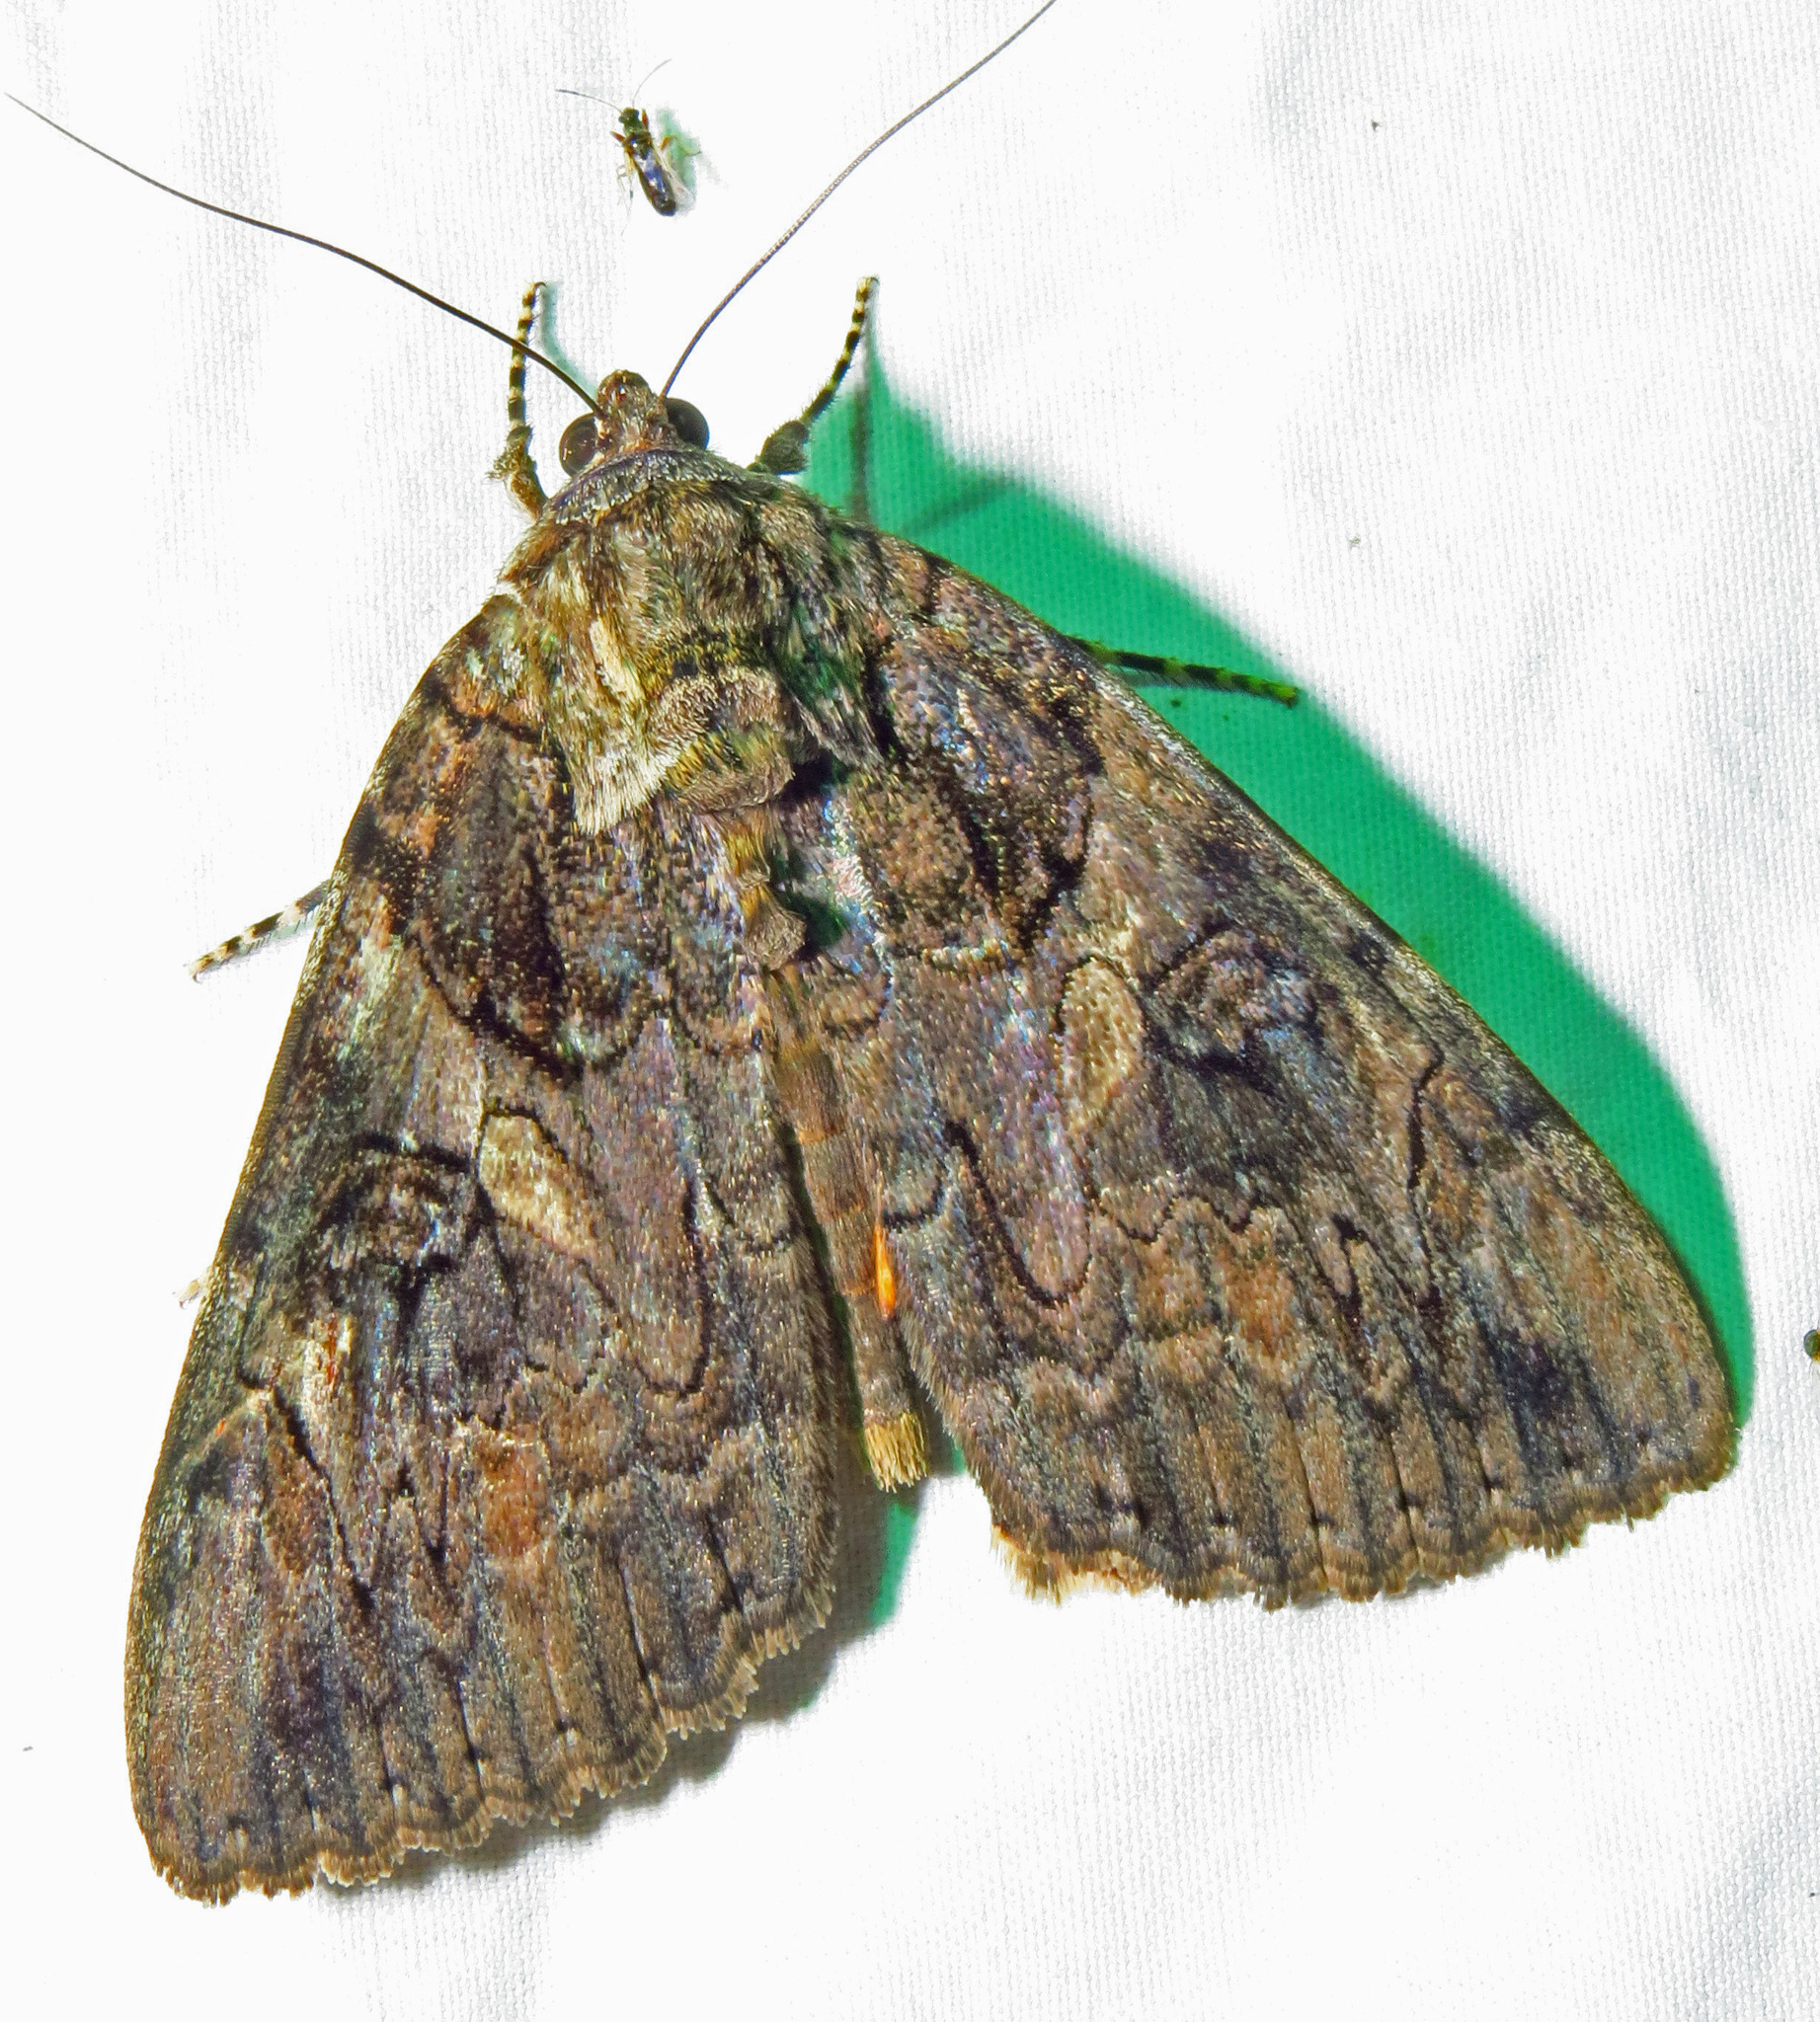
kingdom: Animalia
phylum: Arthropoda
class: Insecta
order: Lepidoptera
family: Erebidae
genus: Catocala
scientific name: Catocala piatrix
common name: The penitent underwing
